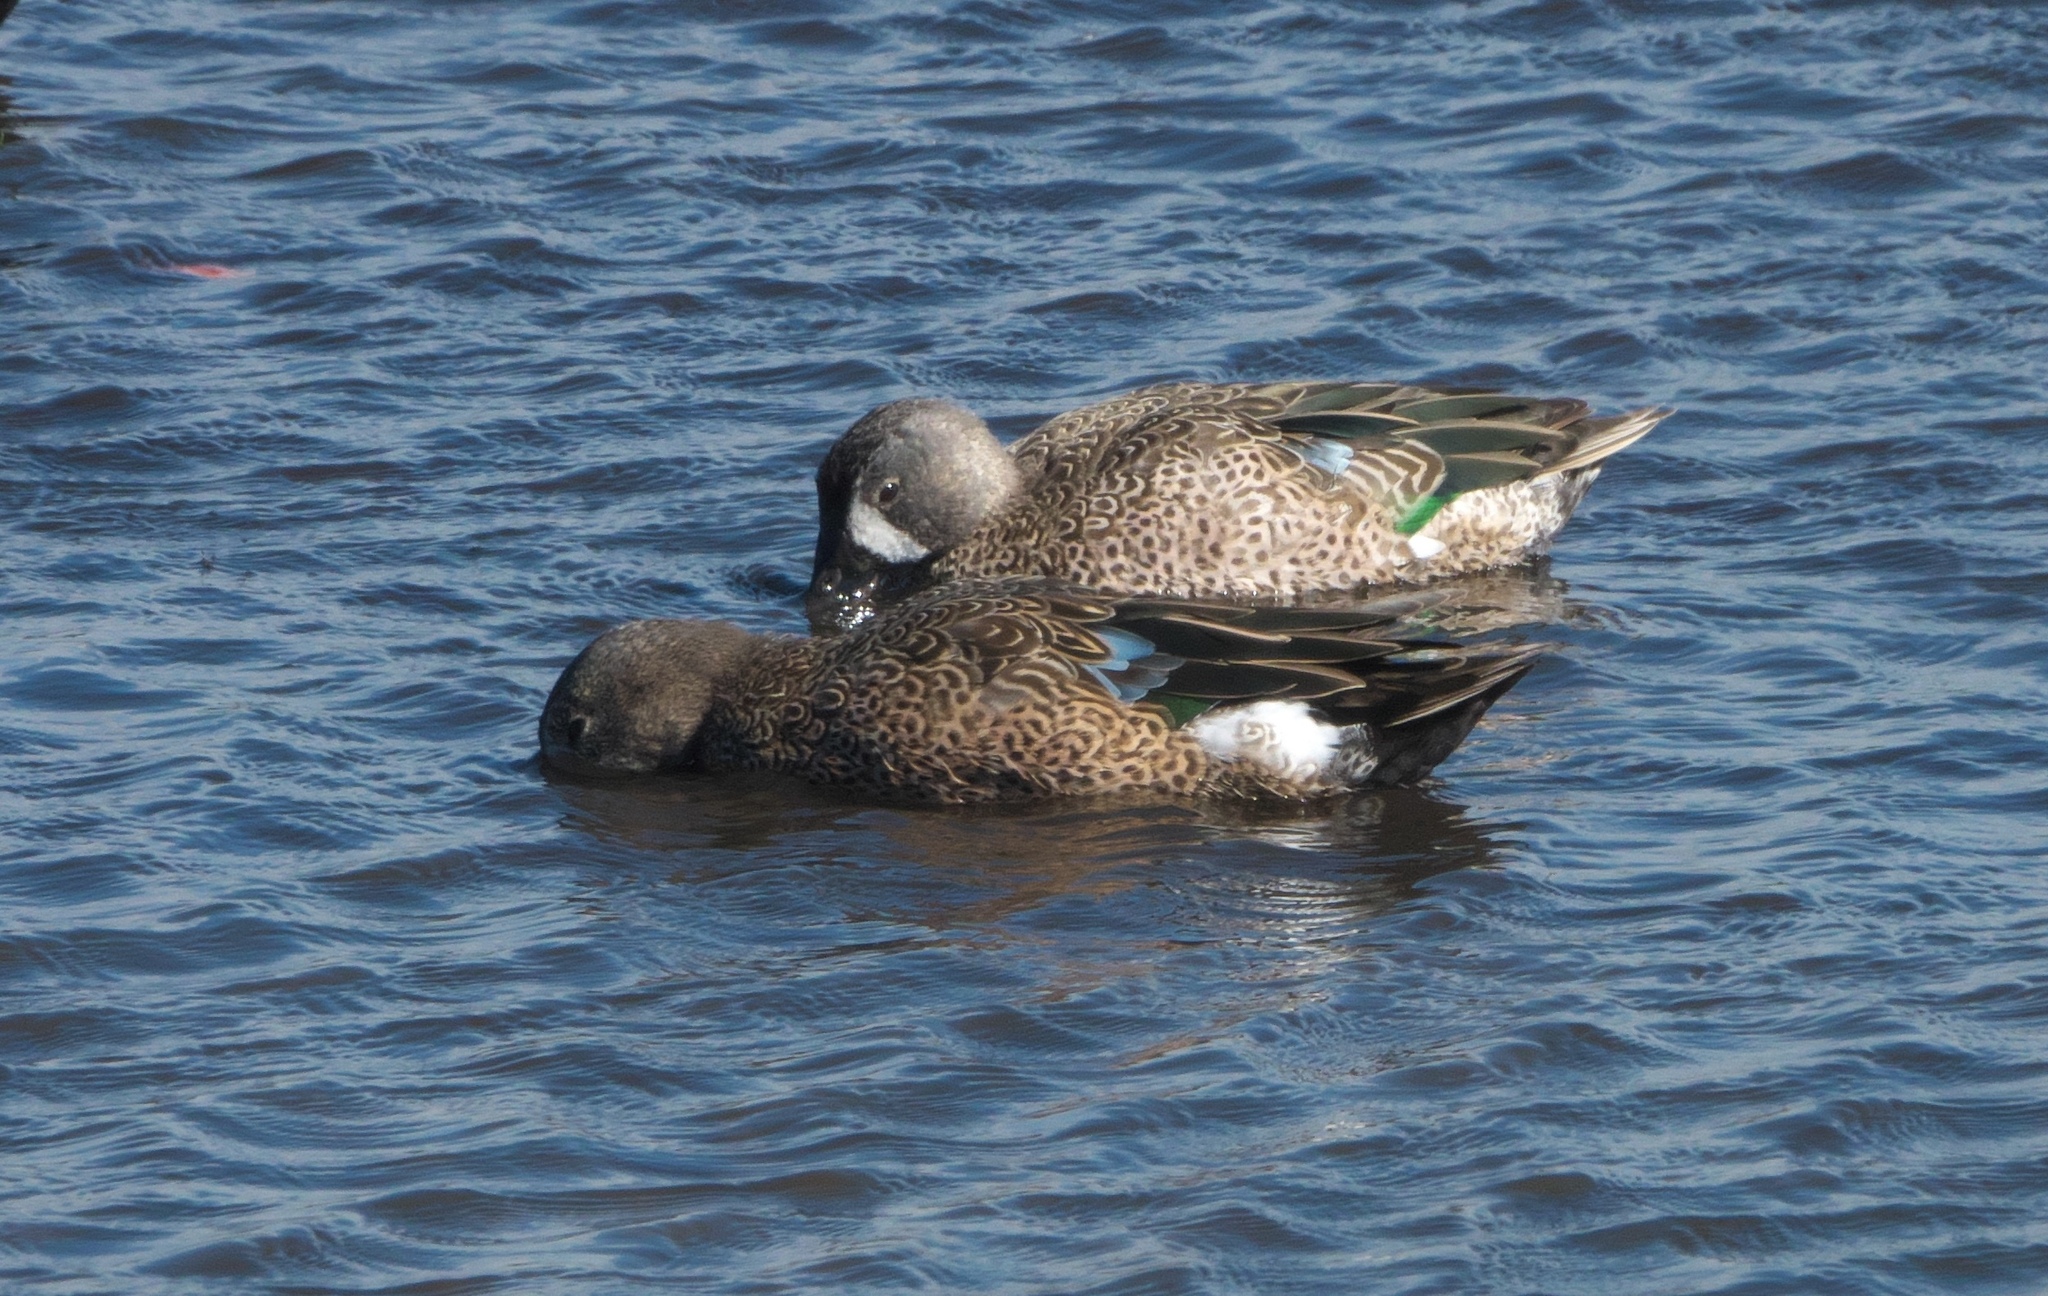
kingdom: Animalia
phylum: Chordata
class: Aves
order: Anseriformes
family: Anatidae
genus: Spatula
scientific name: Spatula discors
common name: Blue-winged teal
